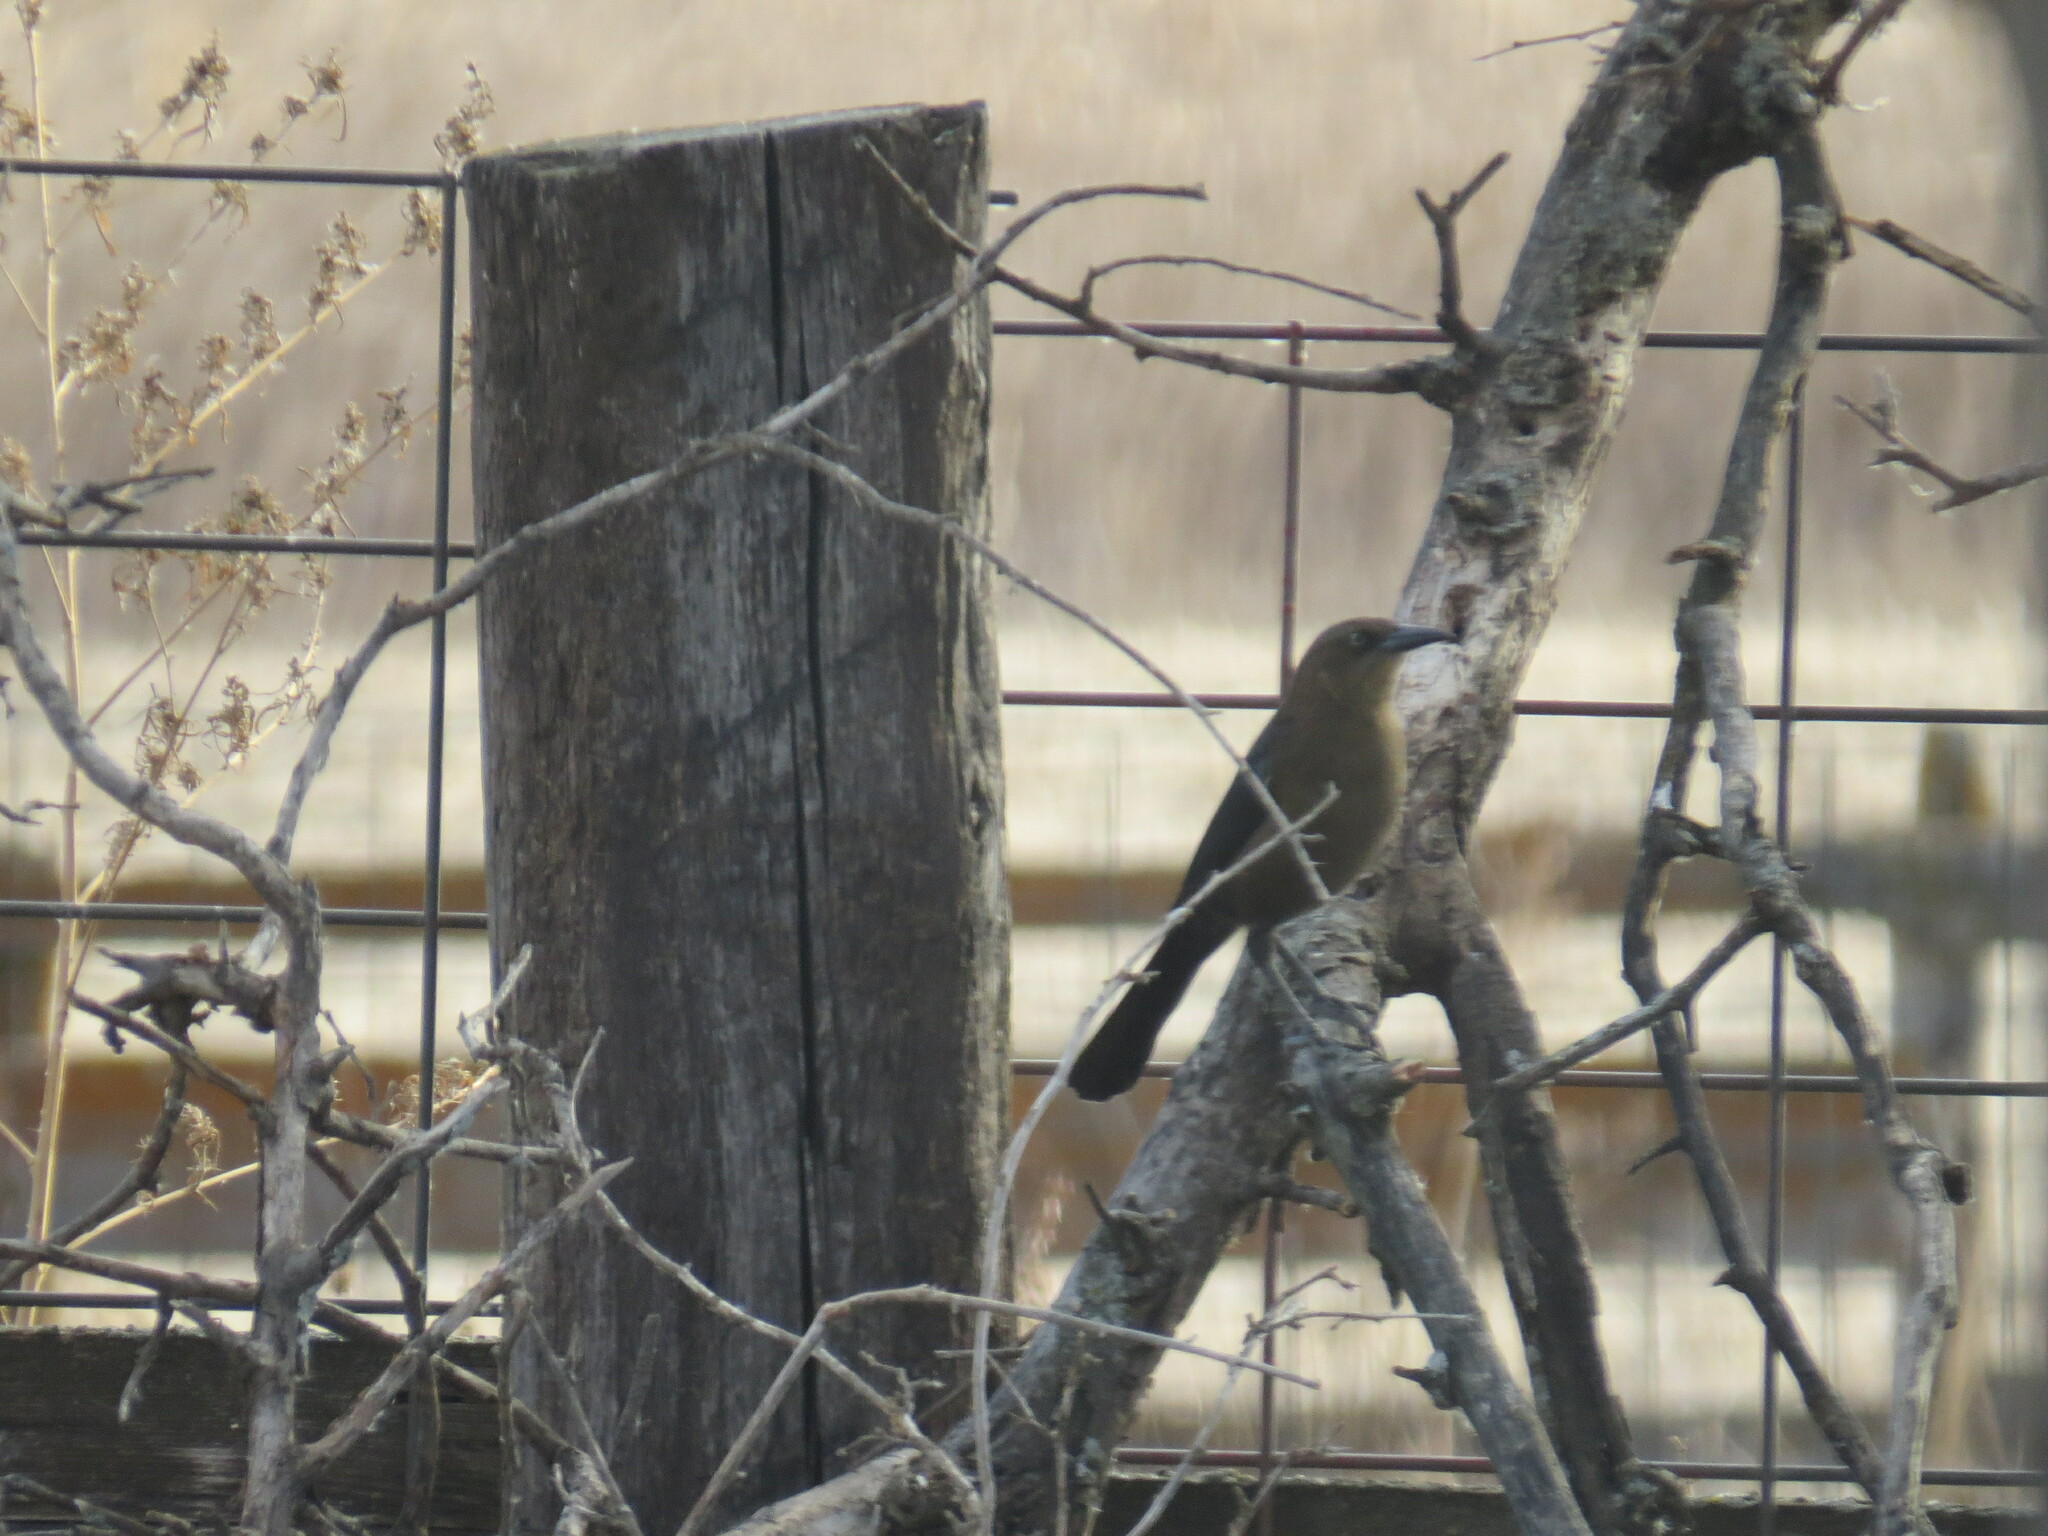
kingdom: Animalia
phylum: Chordata
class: Aves
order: Passeriformes
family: Icteridae
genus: Quiscalus
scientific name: Quiscalus mexicanus
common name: Great-tailed grackle
